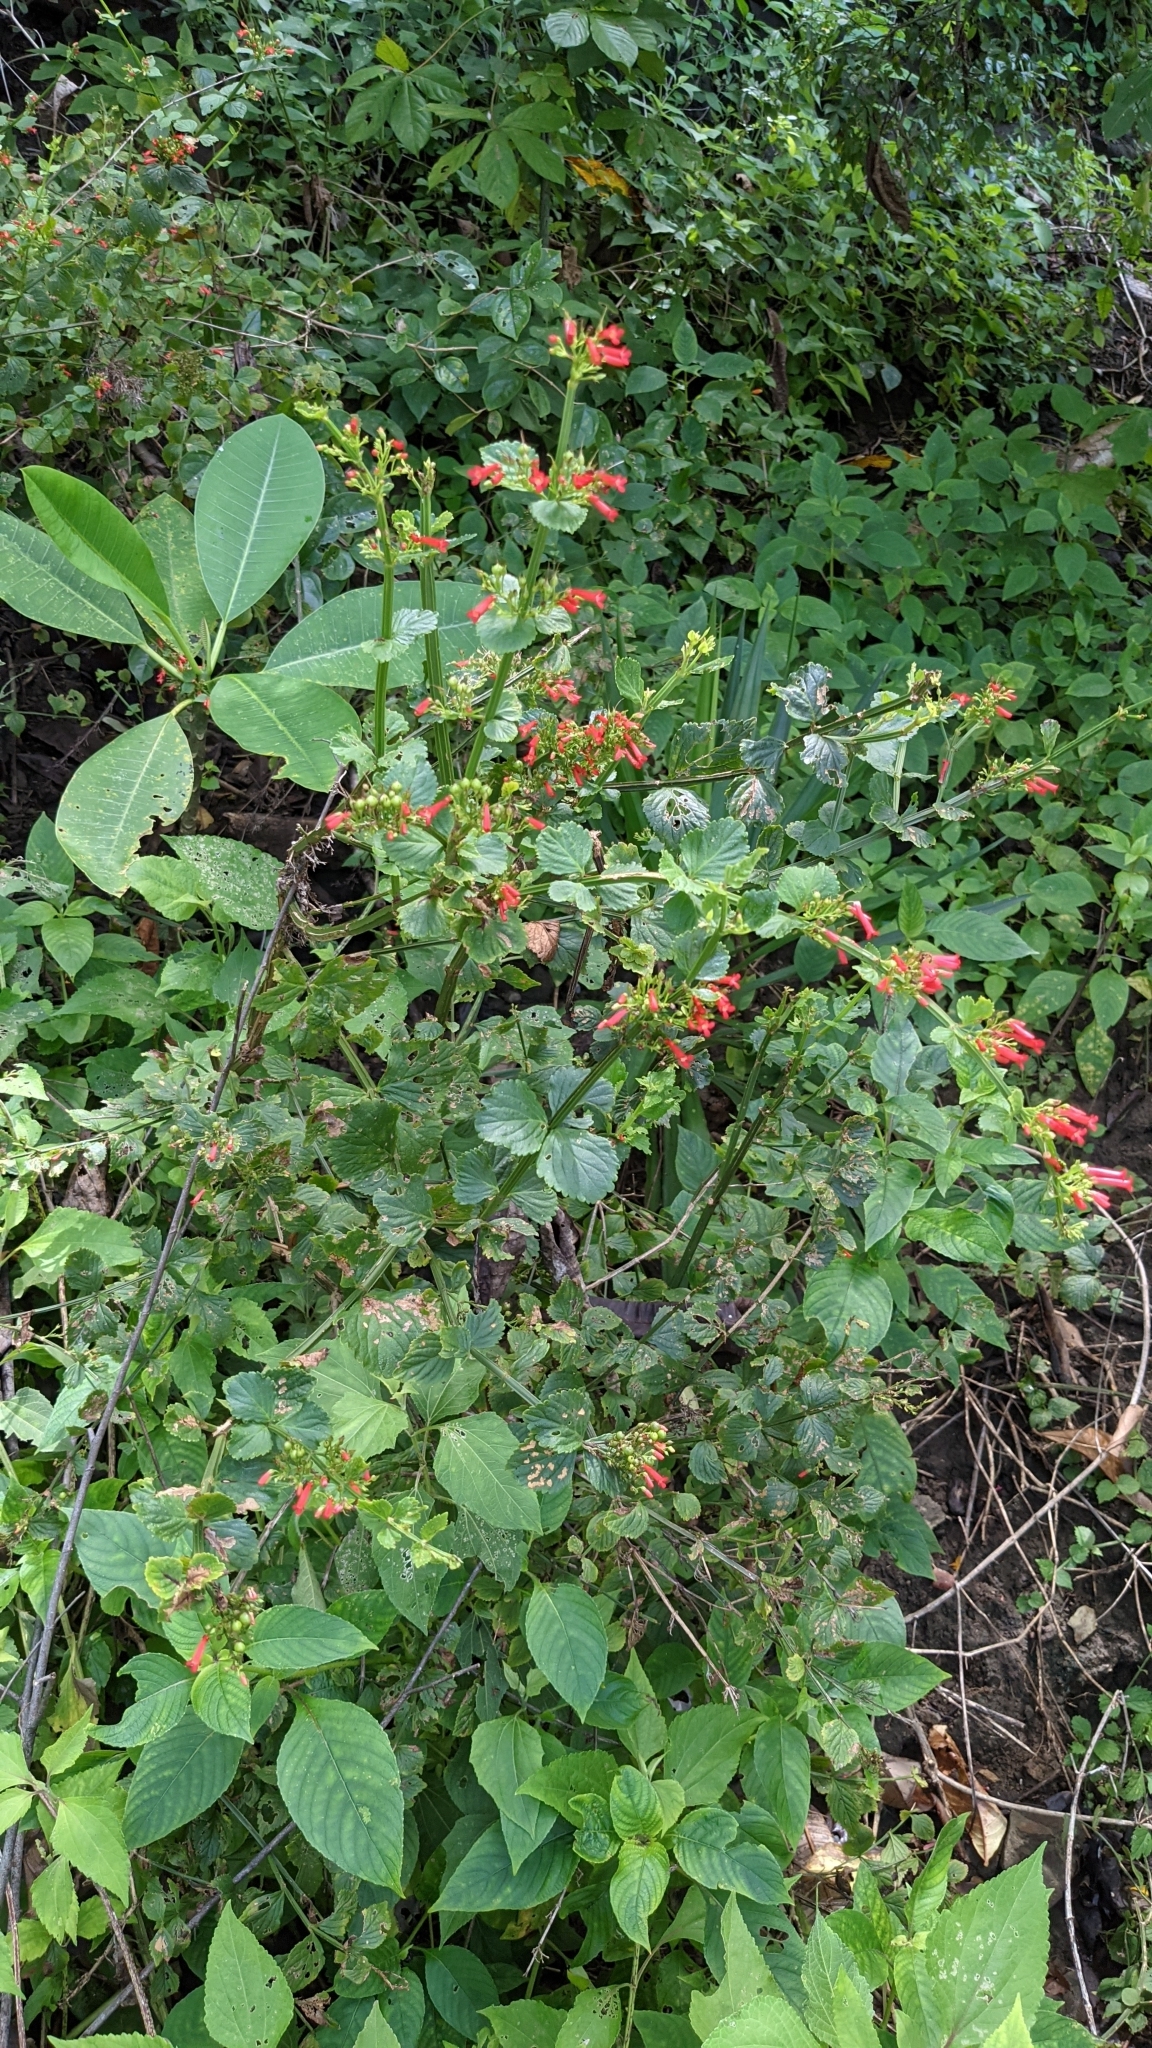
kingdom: Plantae
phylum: Tracheophyta
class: Magnoliopsida
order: Lamiales
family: Plantaginaceae
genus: Russelia
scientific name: Russelia sarmentosa
